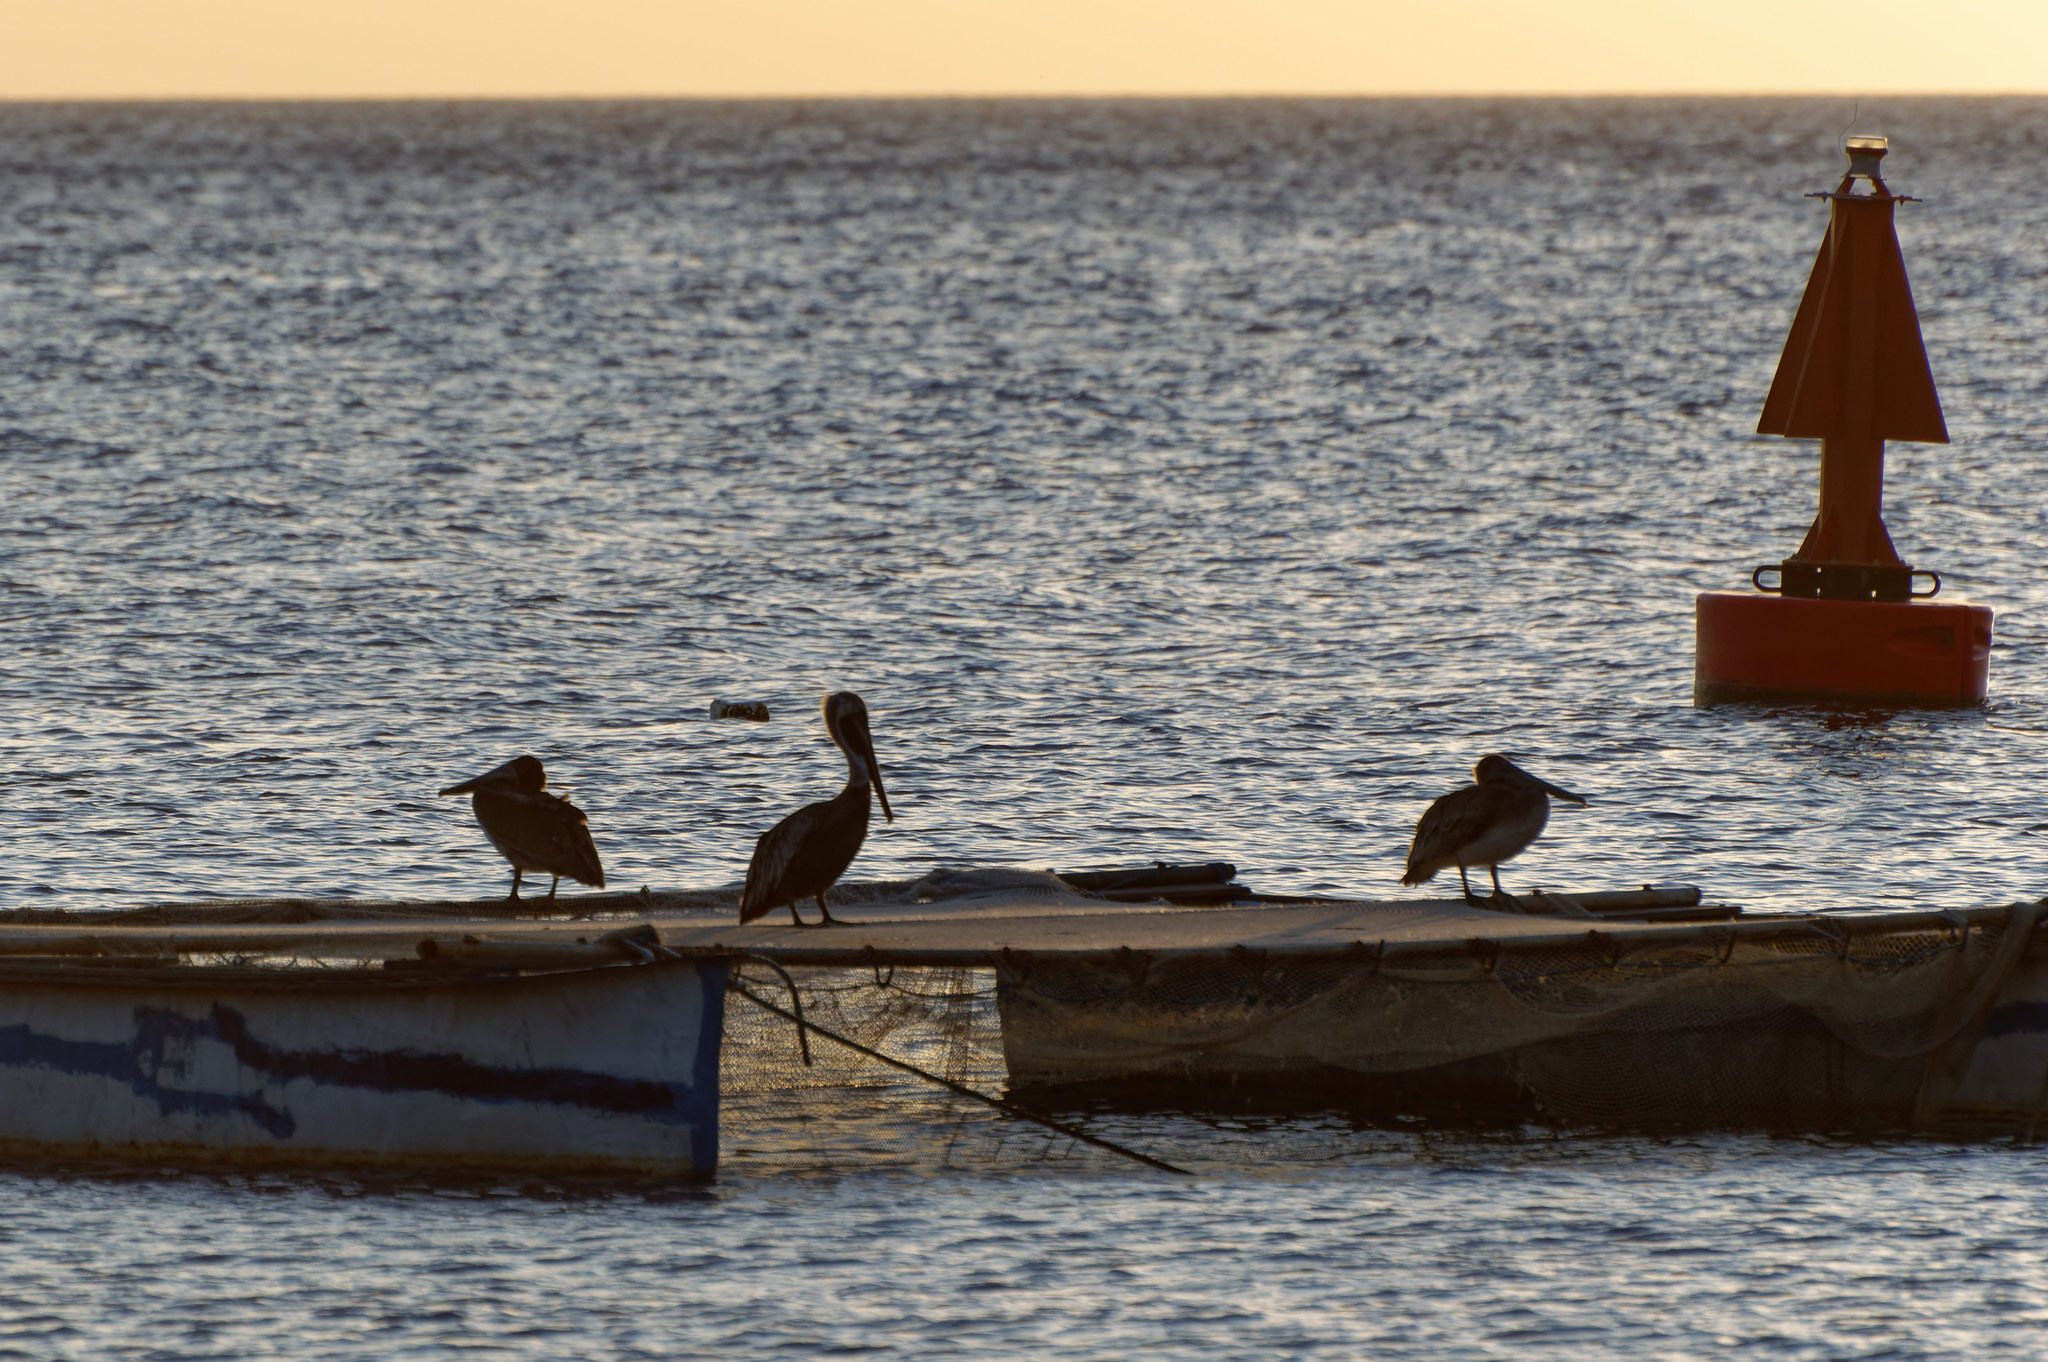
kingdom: Animalia
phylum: Chordata
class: Aves
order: Pelecaniformes
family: Pelecanidae
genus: Pelecanus
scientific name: Pelecanus occidentalis
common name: Brown pelican
